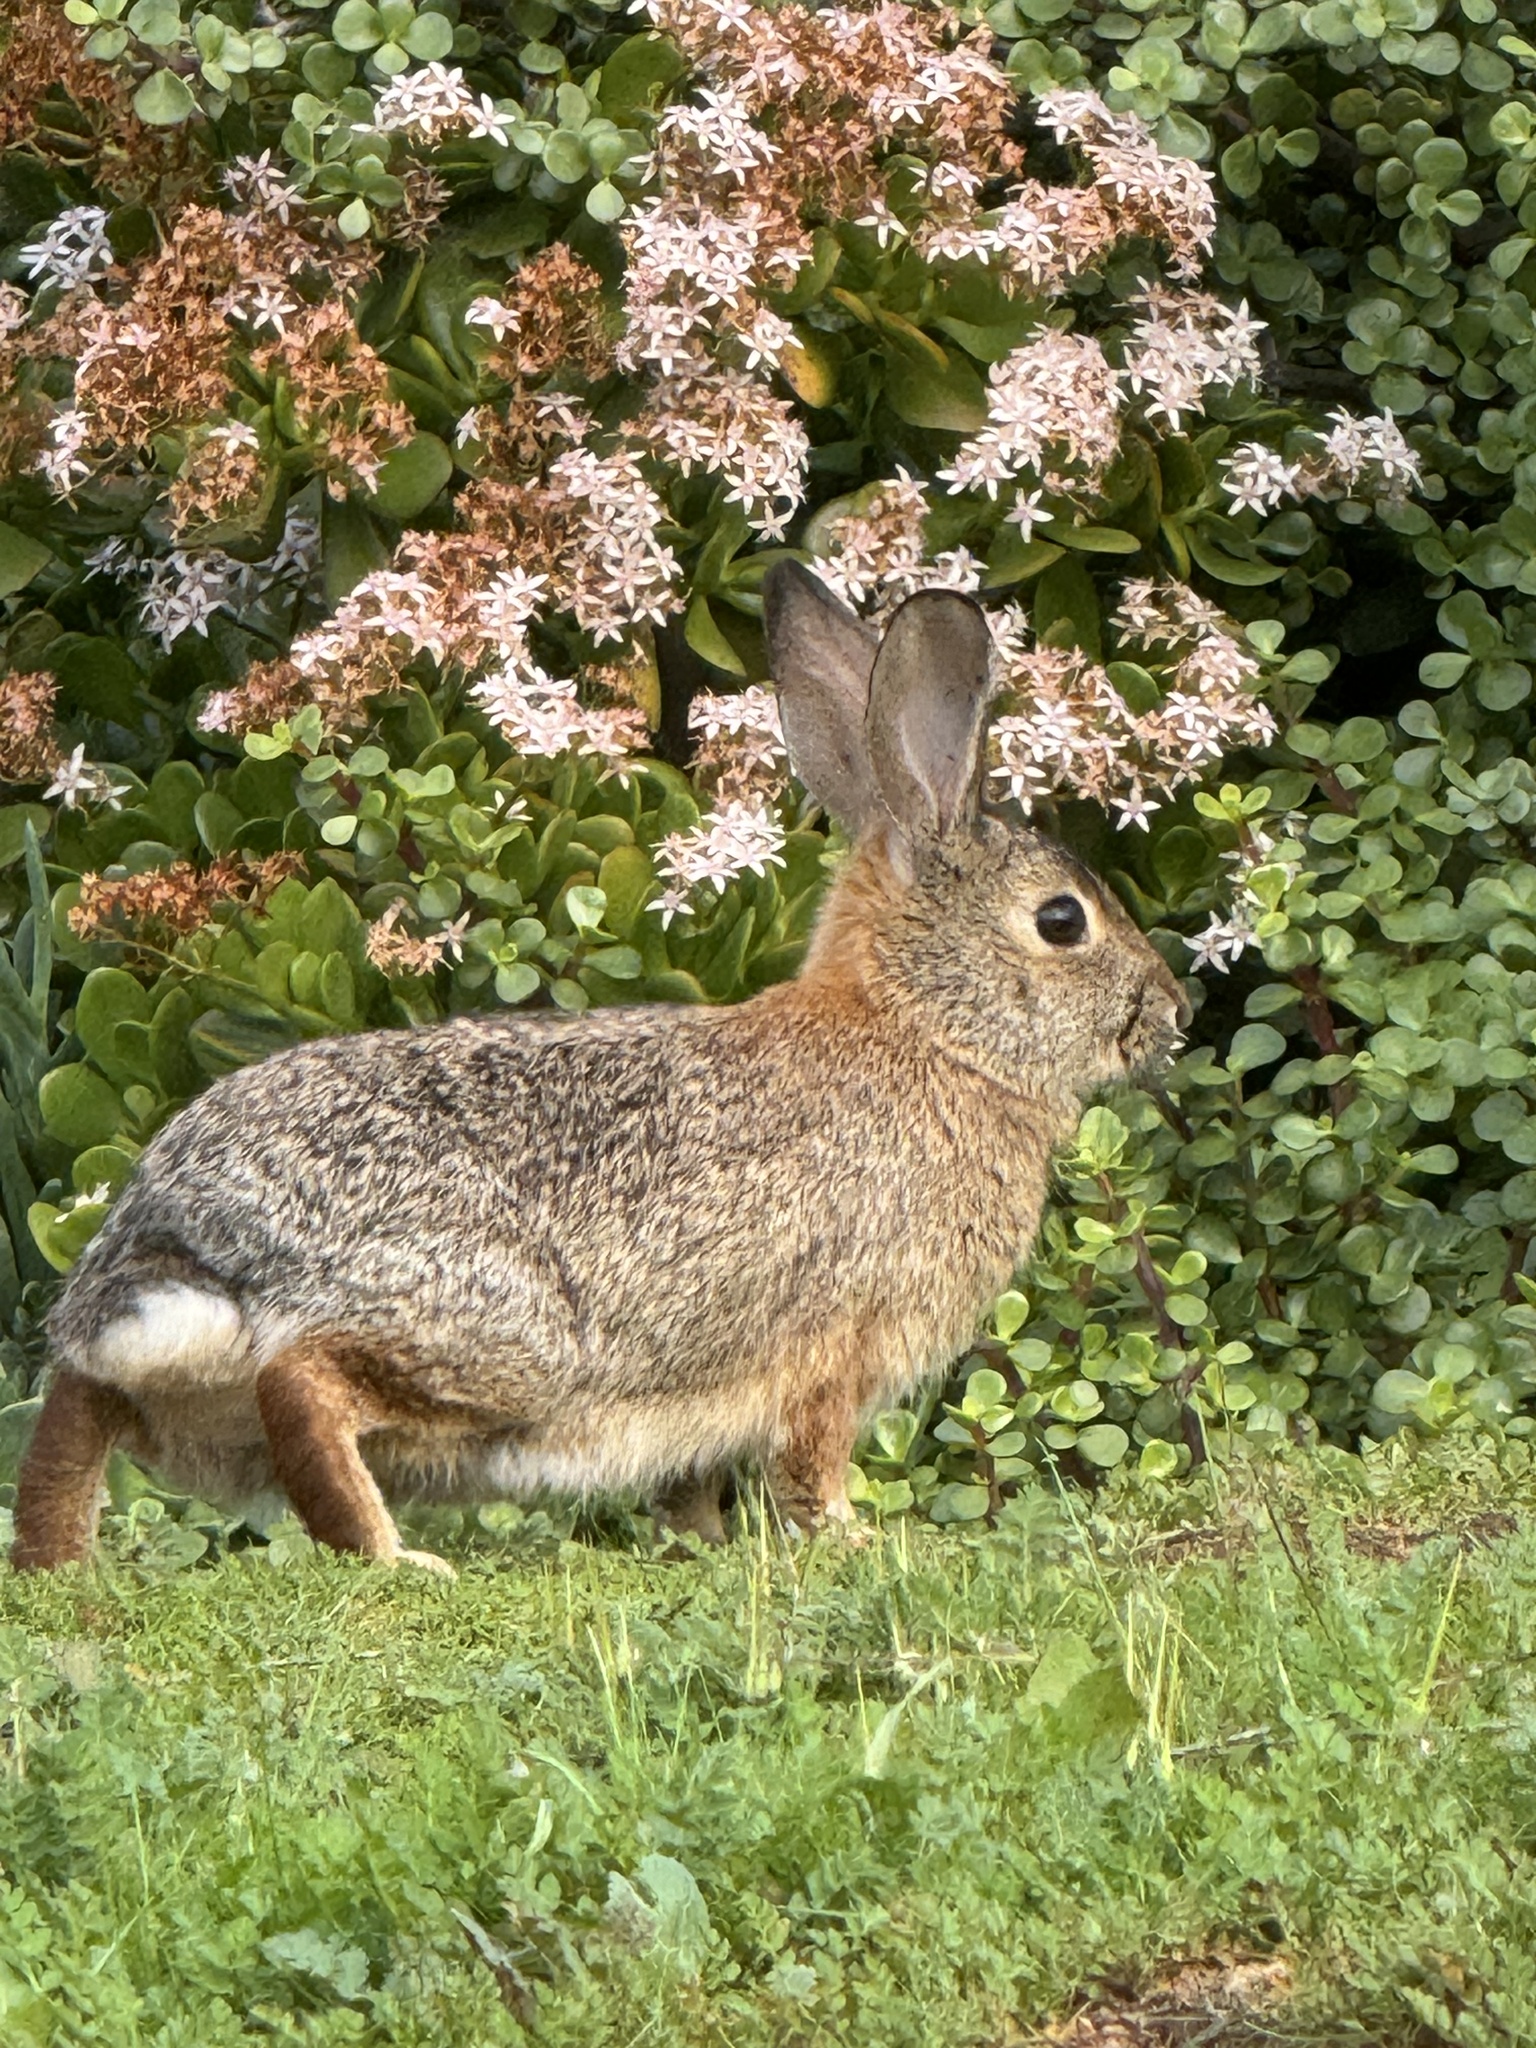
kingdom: Animalia
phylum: Chordata
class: Mammalia
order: Lagomorpha
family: Leporidae
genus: Sylvilagus
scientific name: Sylvilagus audubonii
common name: Desert cottontail
